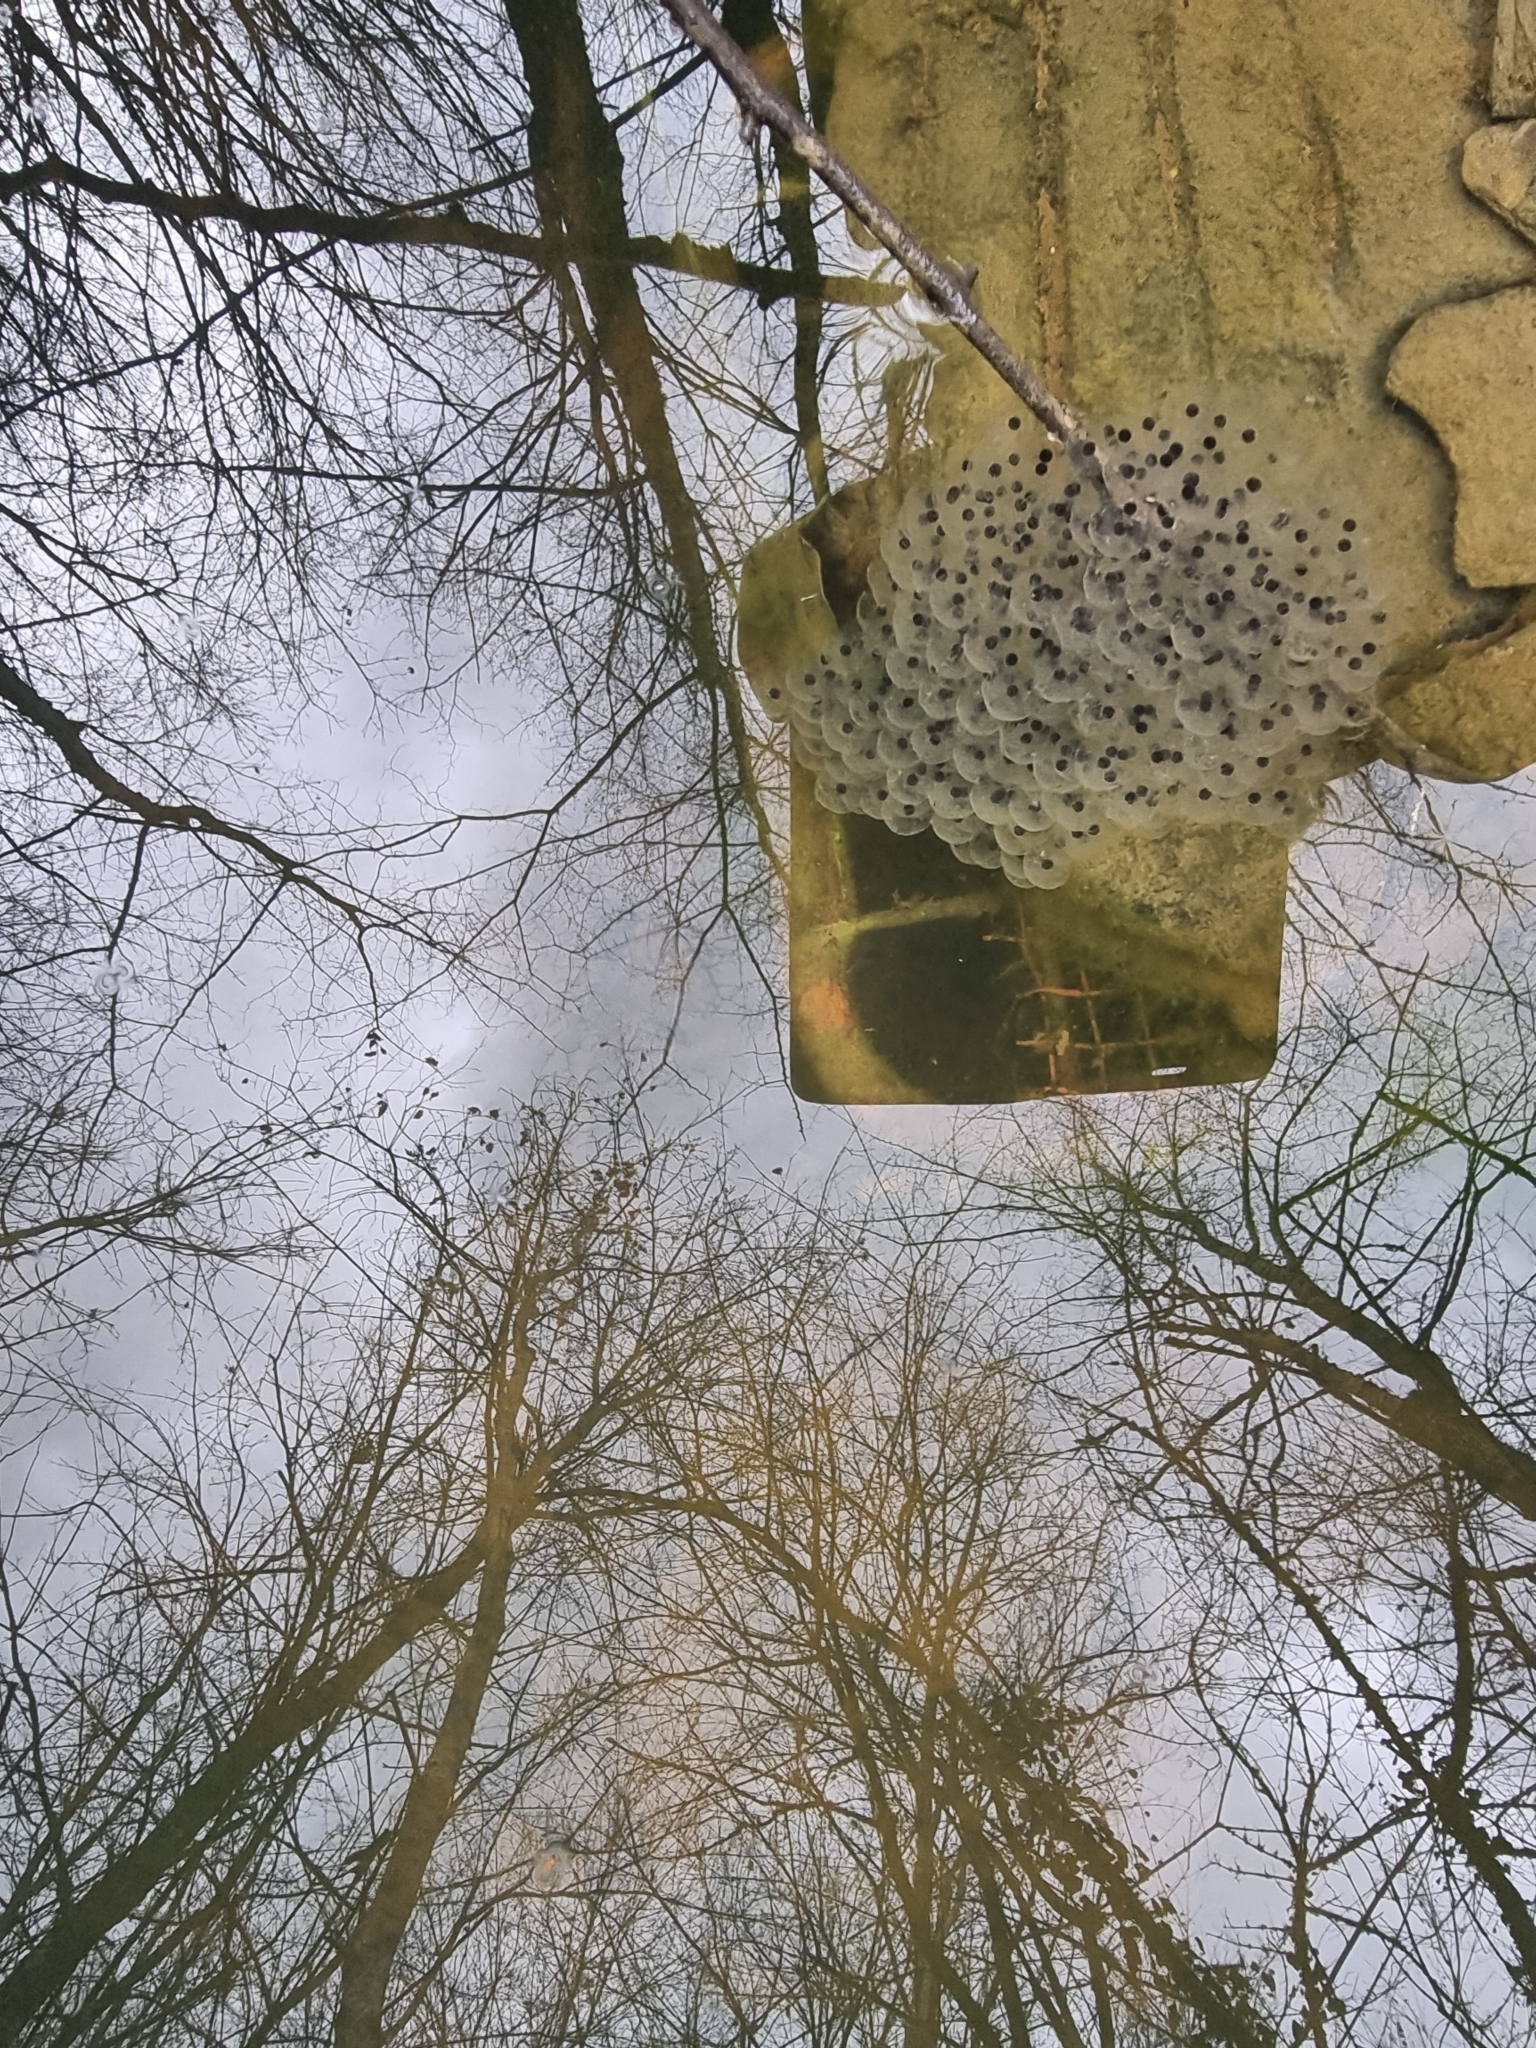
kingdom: Animalia
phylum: Chordata
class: Amphibia
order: Anura
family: Ranidae
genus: Rana
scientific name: Rana dalmatina
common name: Agile frog
